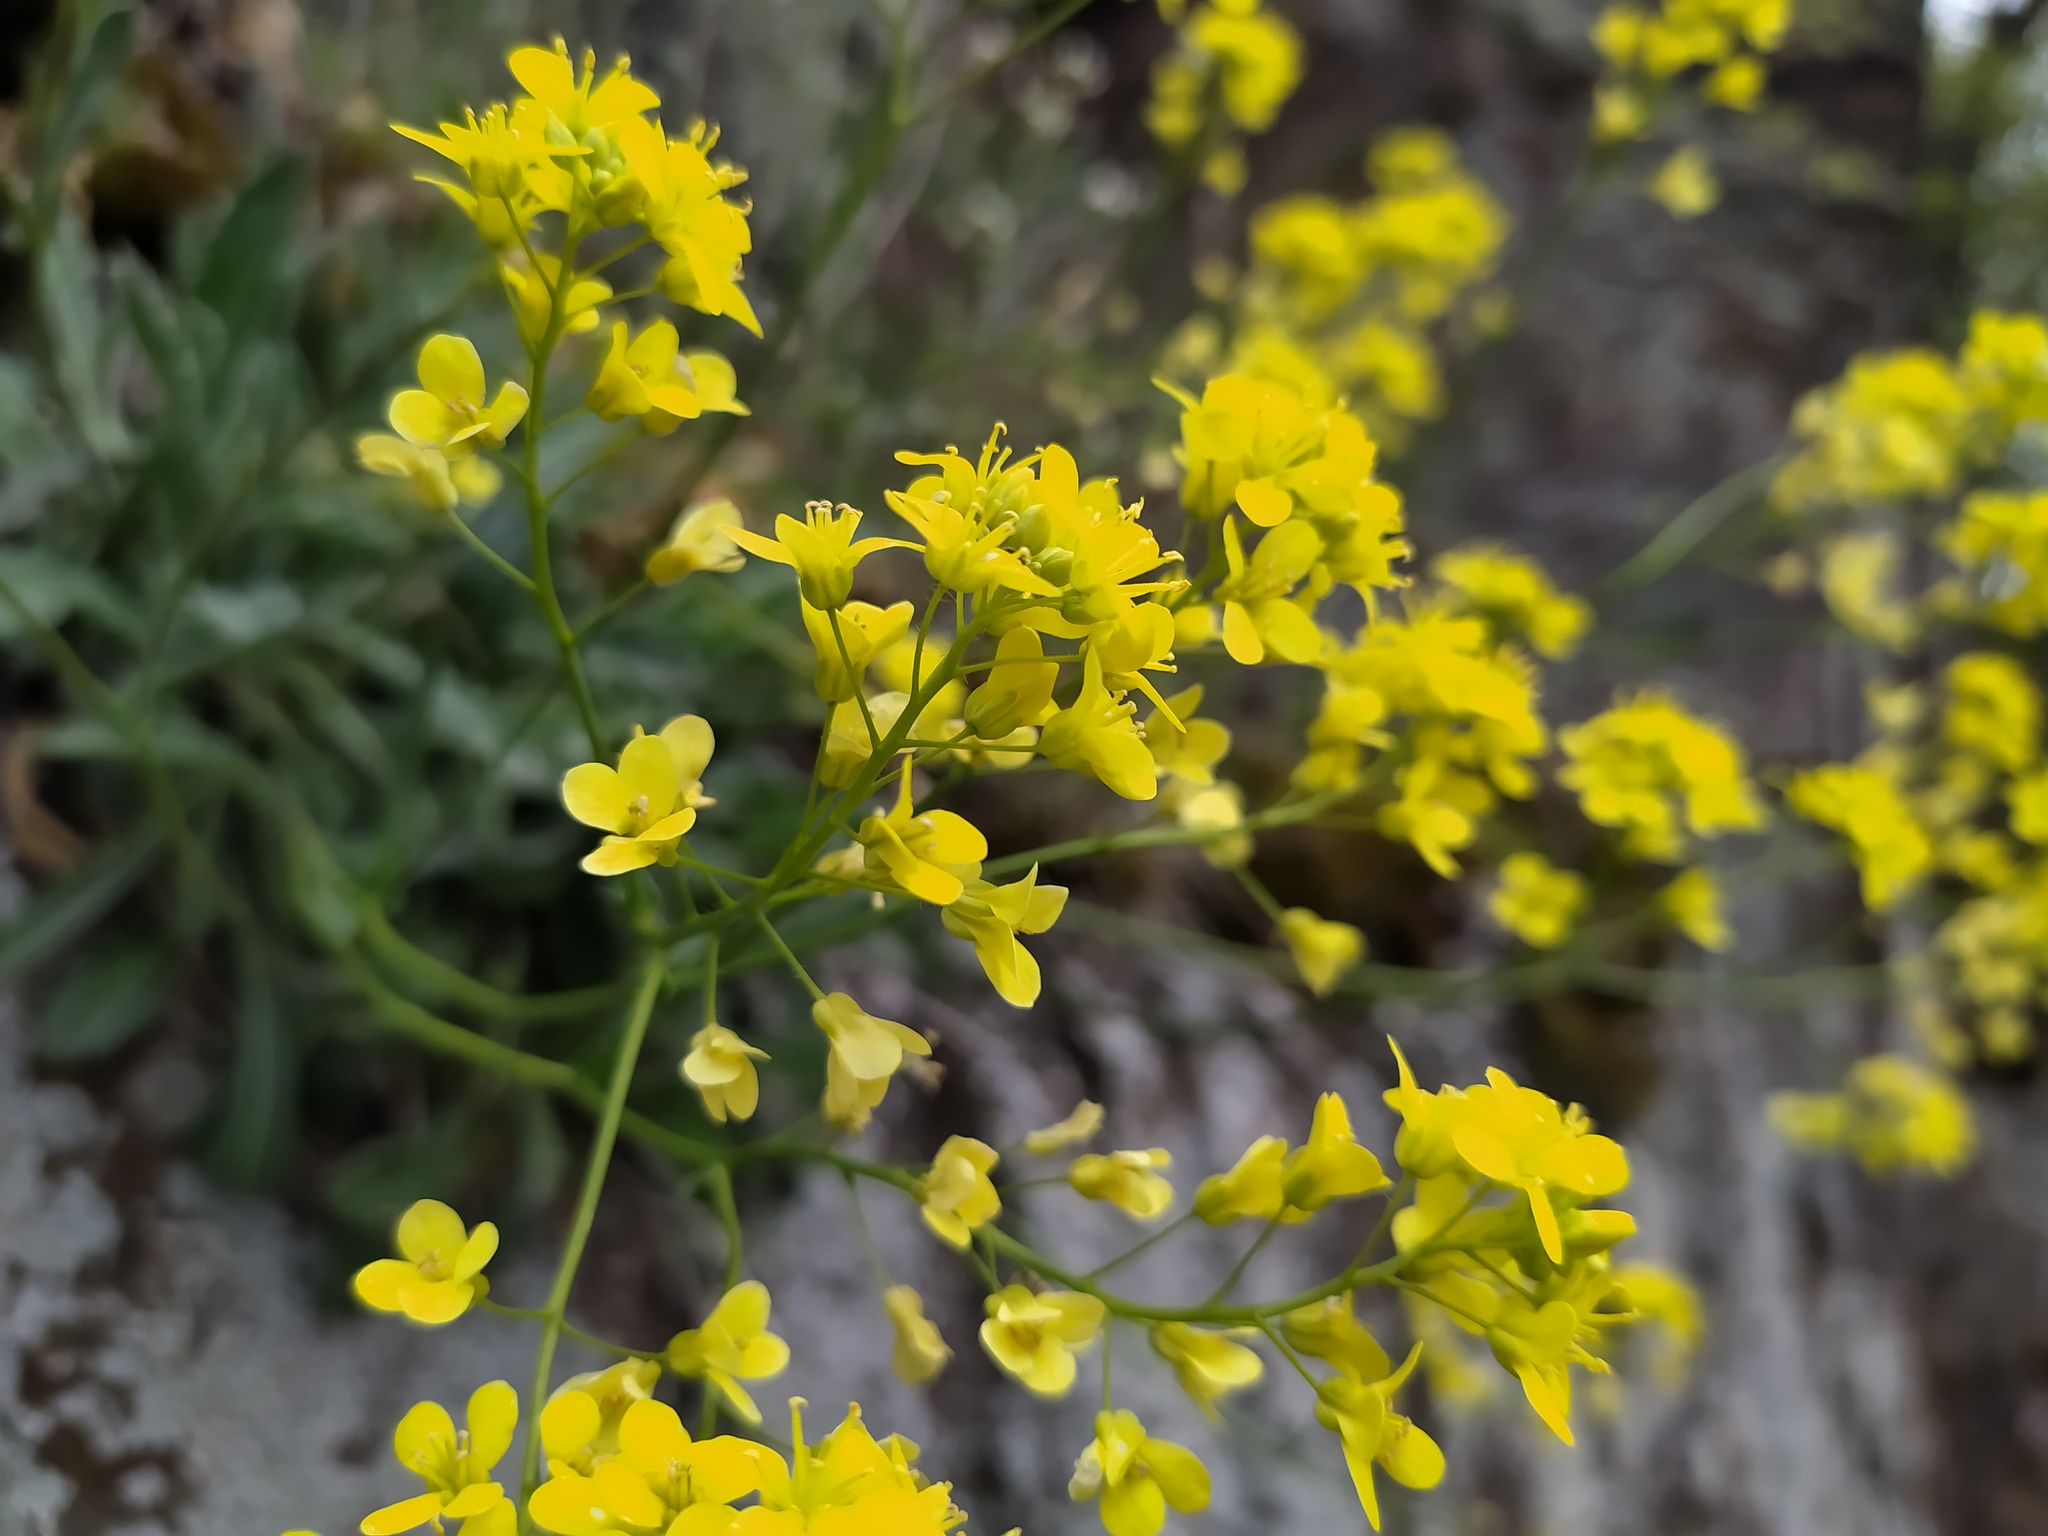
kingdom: Plantae
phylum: Tracheophyta
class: Magnoliopsida
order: Brassicales
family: Brassicaceae
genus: Biscutella
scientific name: Biscutella laevigata
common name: Buckler mustard
